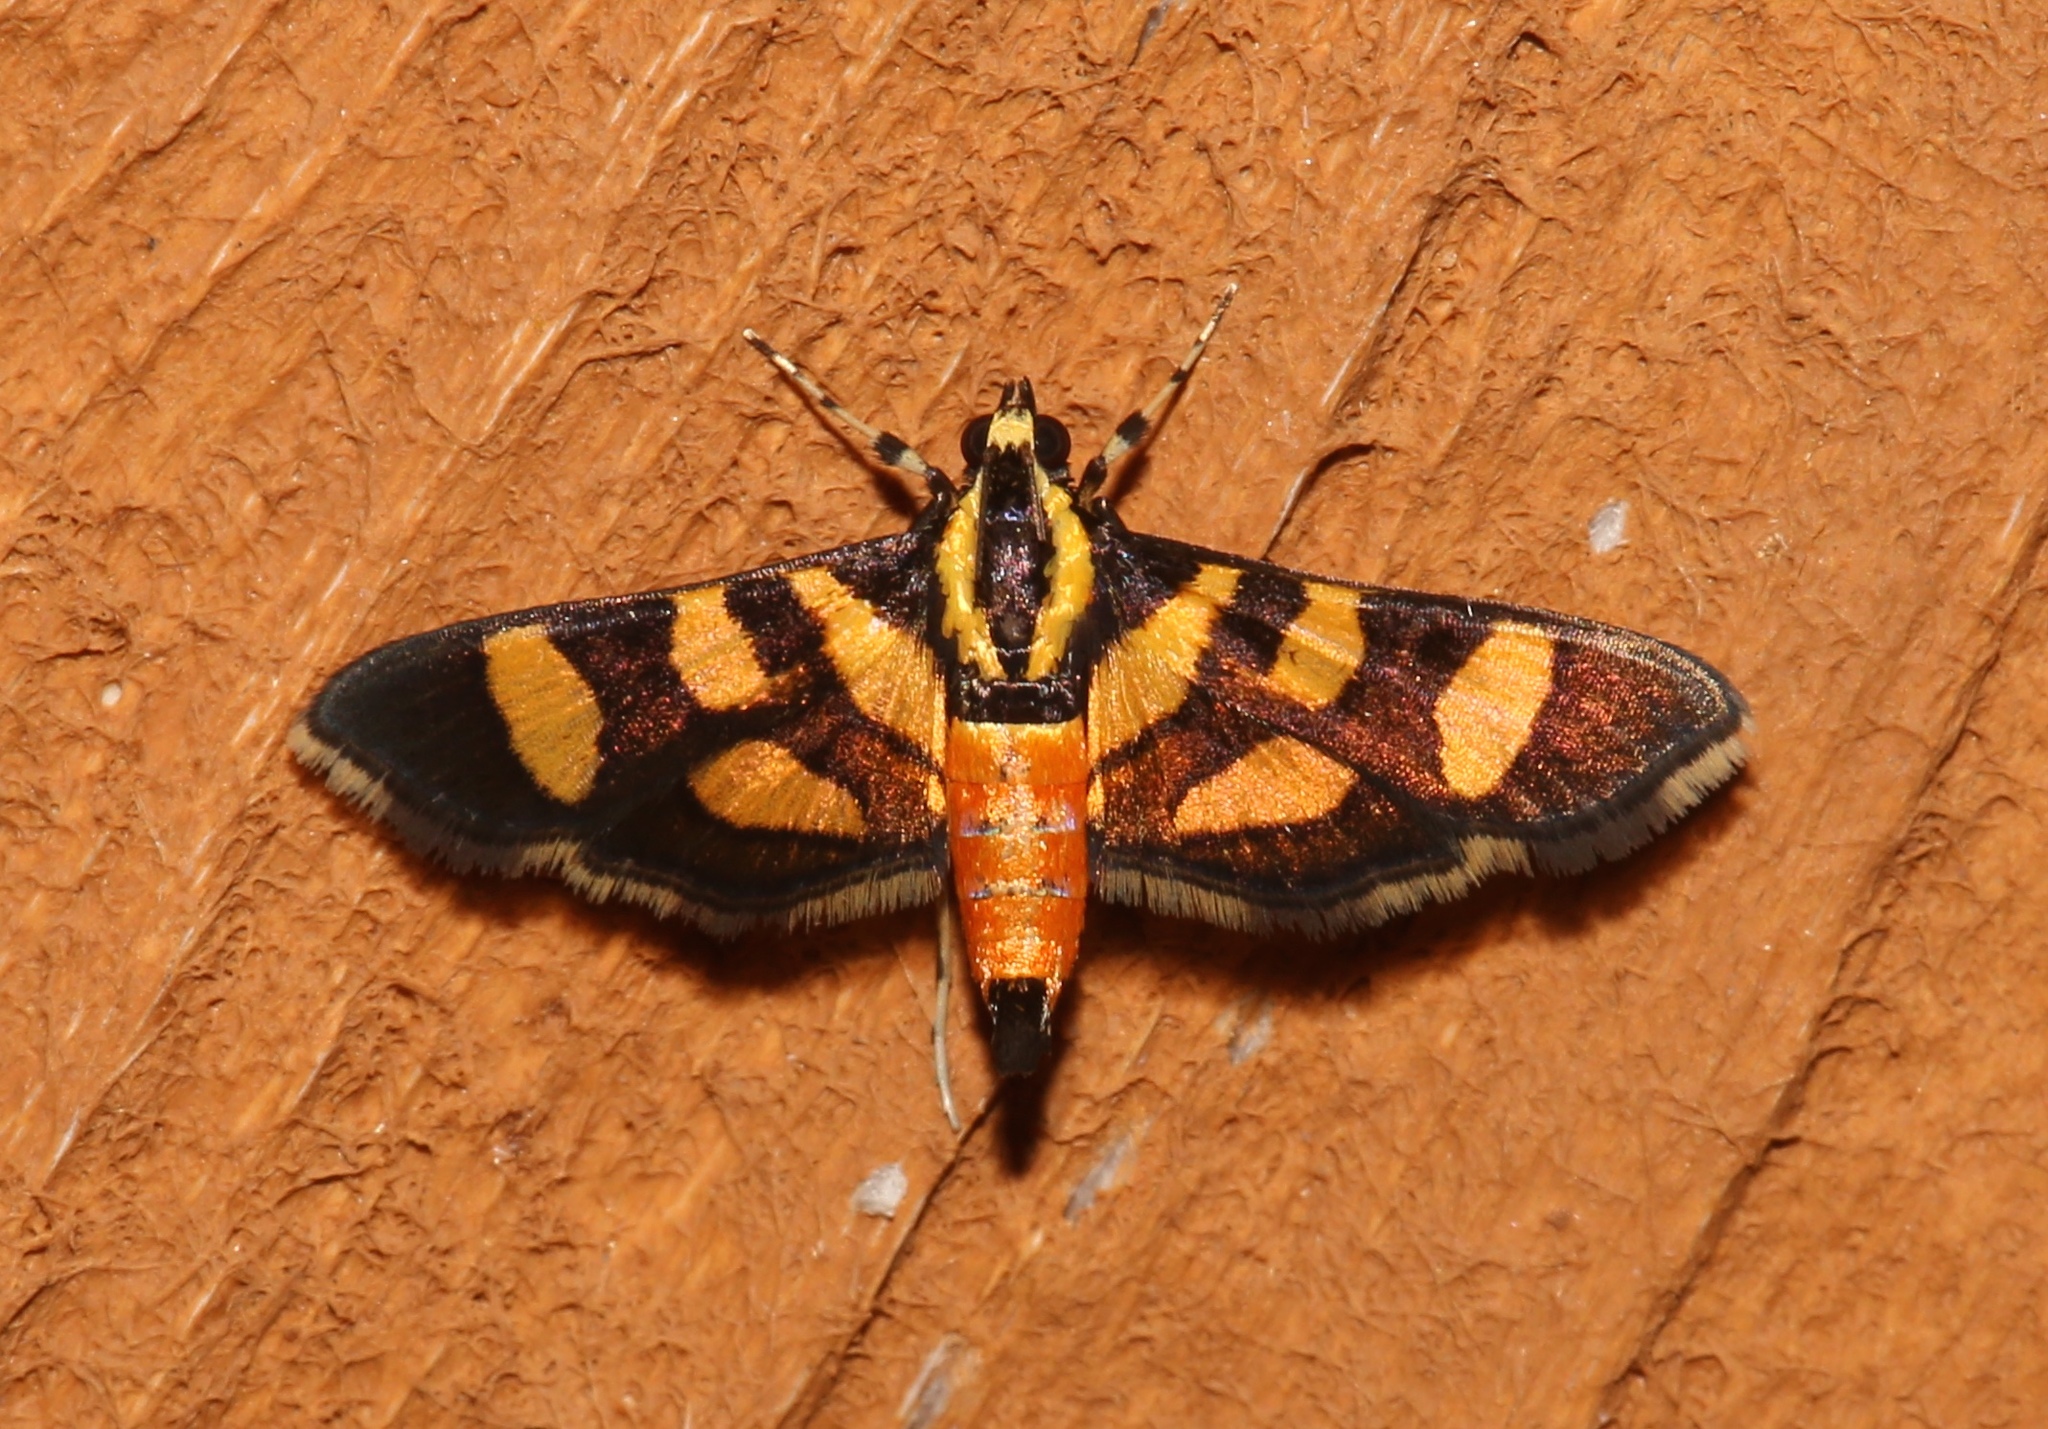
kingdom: Animalia
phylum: Arthropoda
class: Insecta
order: Lepidoptera
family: Crambidae
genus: Syngamia
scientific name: Syngamia florella
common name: Orange-spotted flower moth
